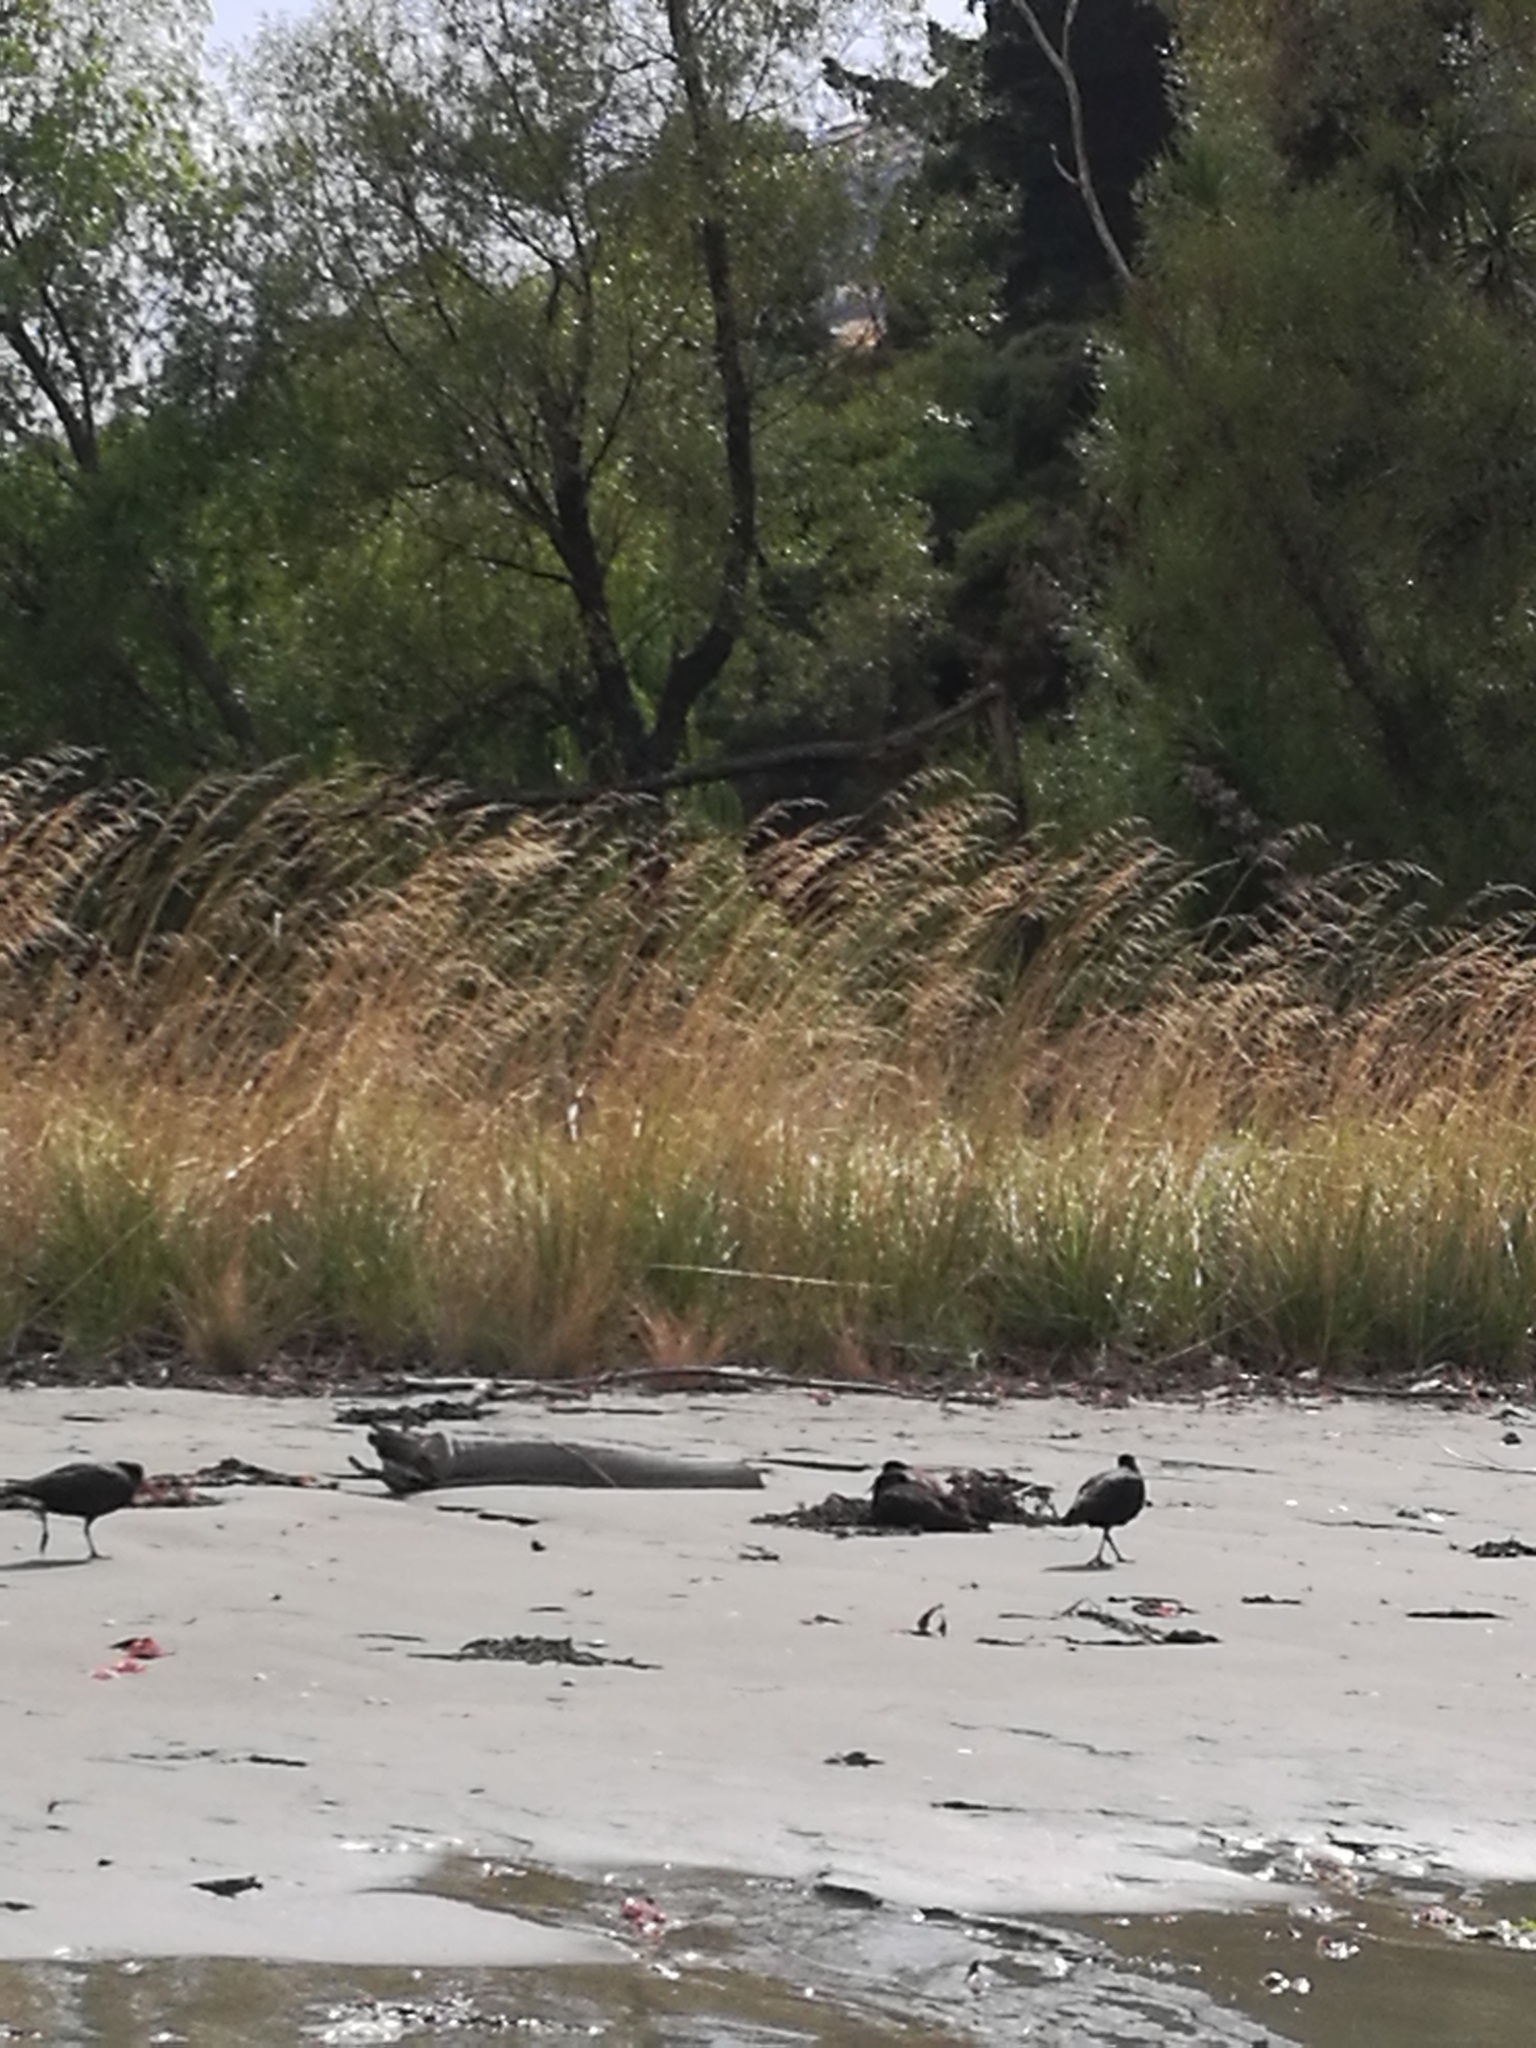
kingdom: Animalia
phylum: Chordata
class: Aves
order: Charadriiformes
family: Haematopodidae
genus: Haematopus
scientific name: Haematopus unicolor
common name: Variable oystercatcher
